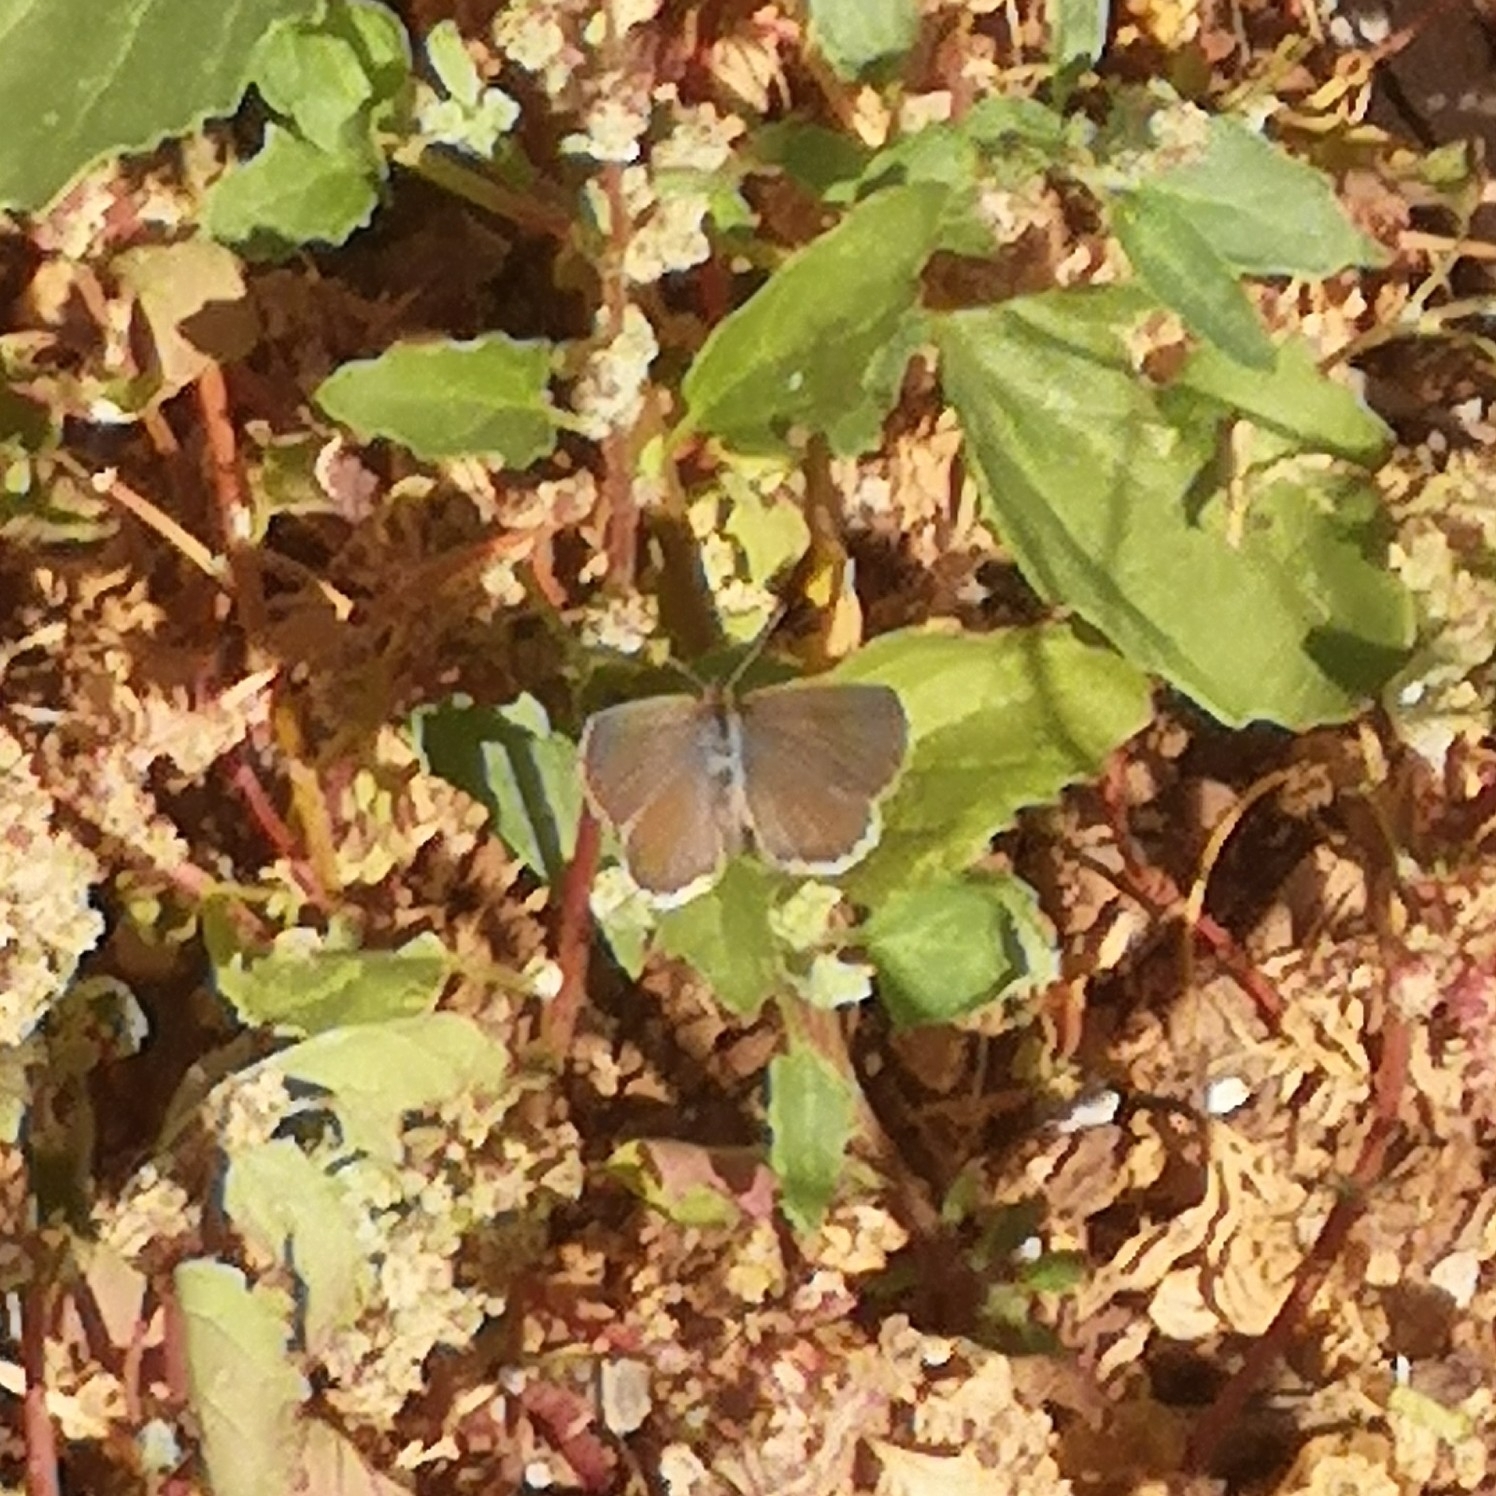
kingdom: Animalia
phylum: Arthropoda
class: Insecta
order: Lepidoptera
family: Lycaenidae
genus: Zizeeria
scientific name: Zizeeria knysna
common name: African grass blue
